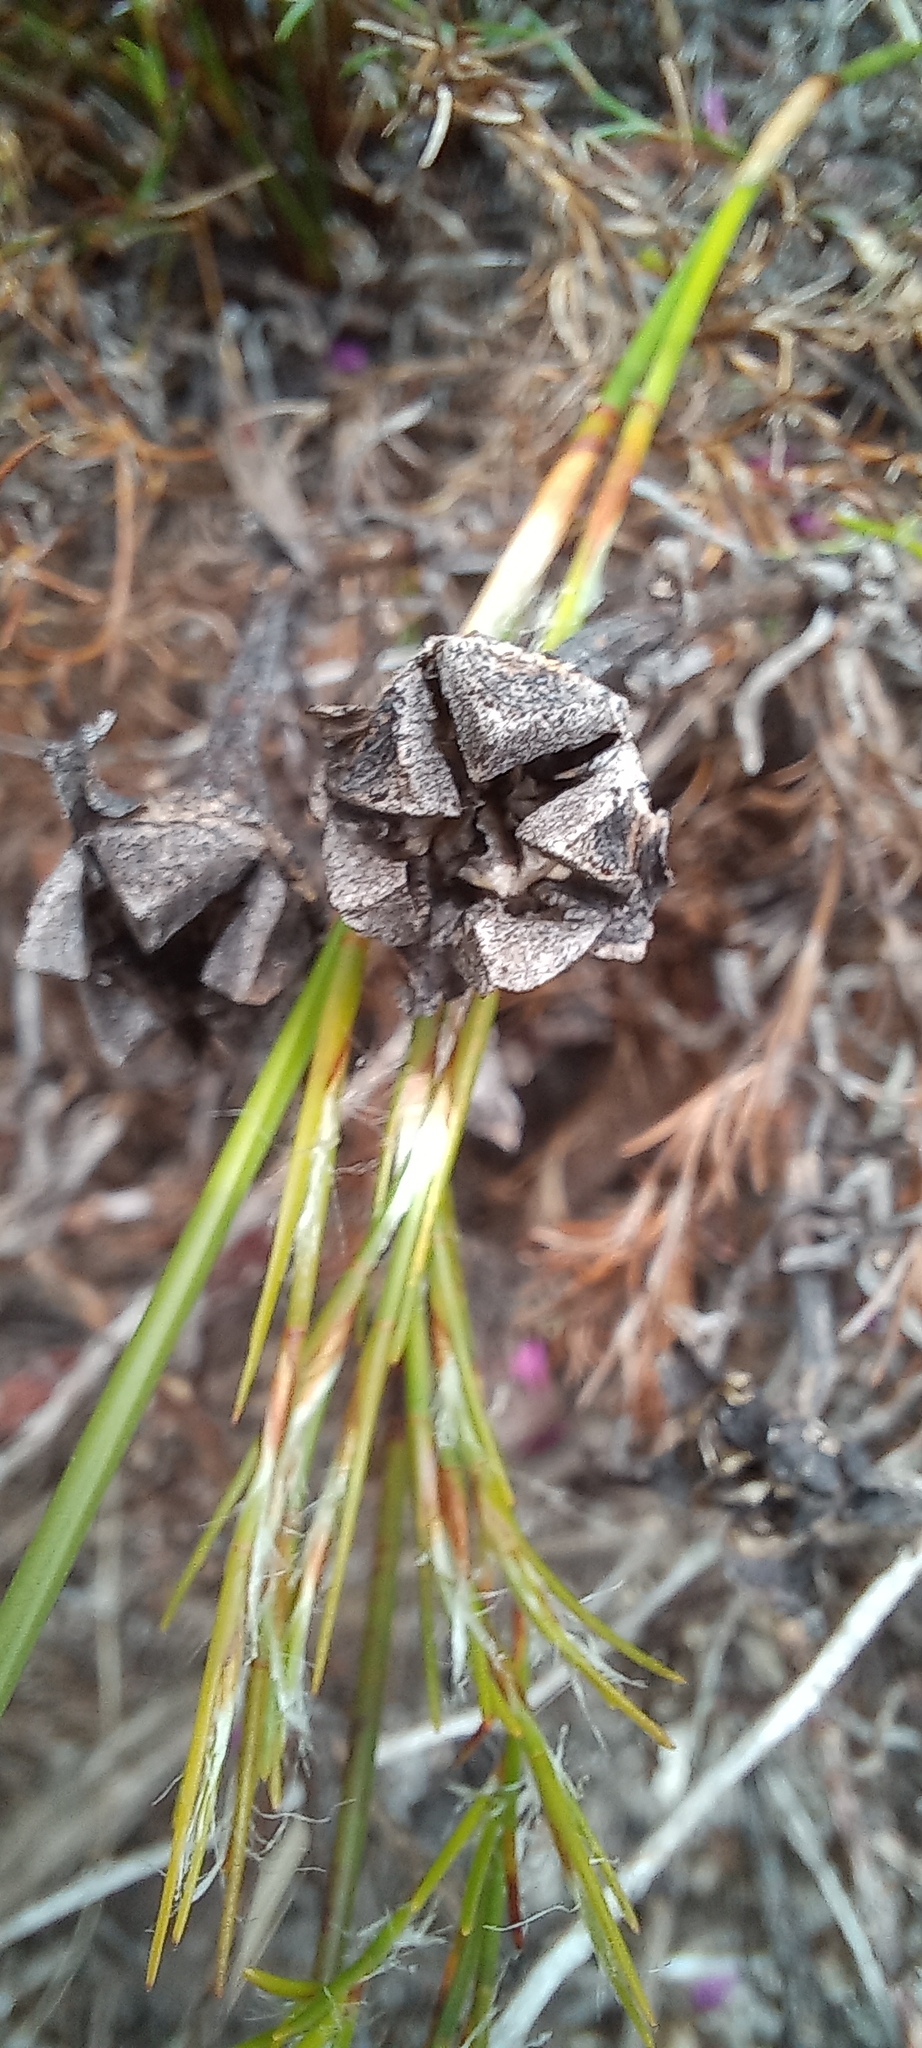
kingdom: Plantae
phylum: Tracheophyta
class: Magnoliopsida
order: Caryophyllales
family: Aizoaceae
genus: Lampranthus
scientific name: Lampranthus bicolor
